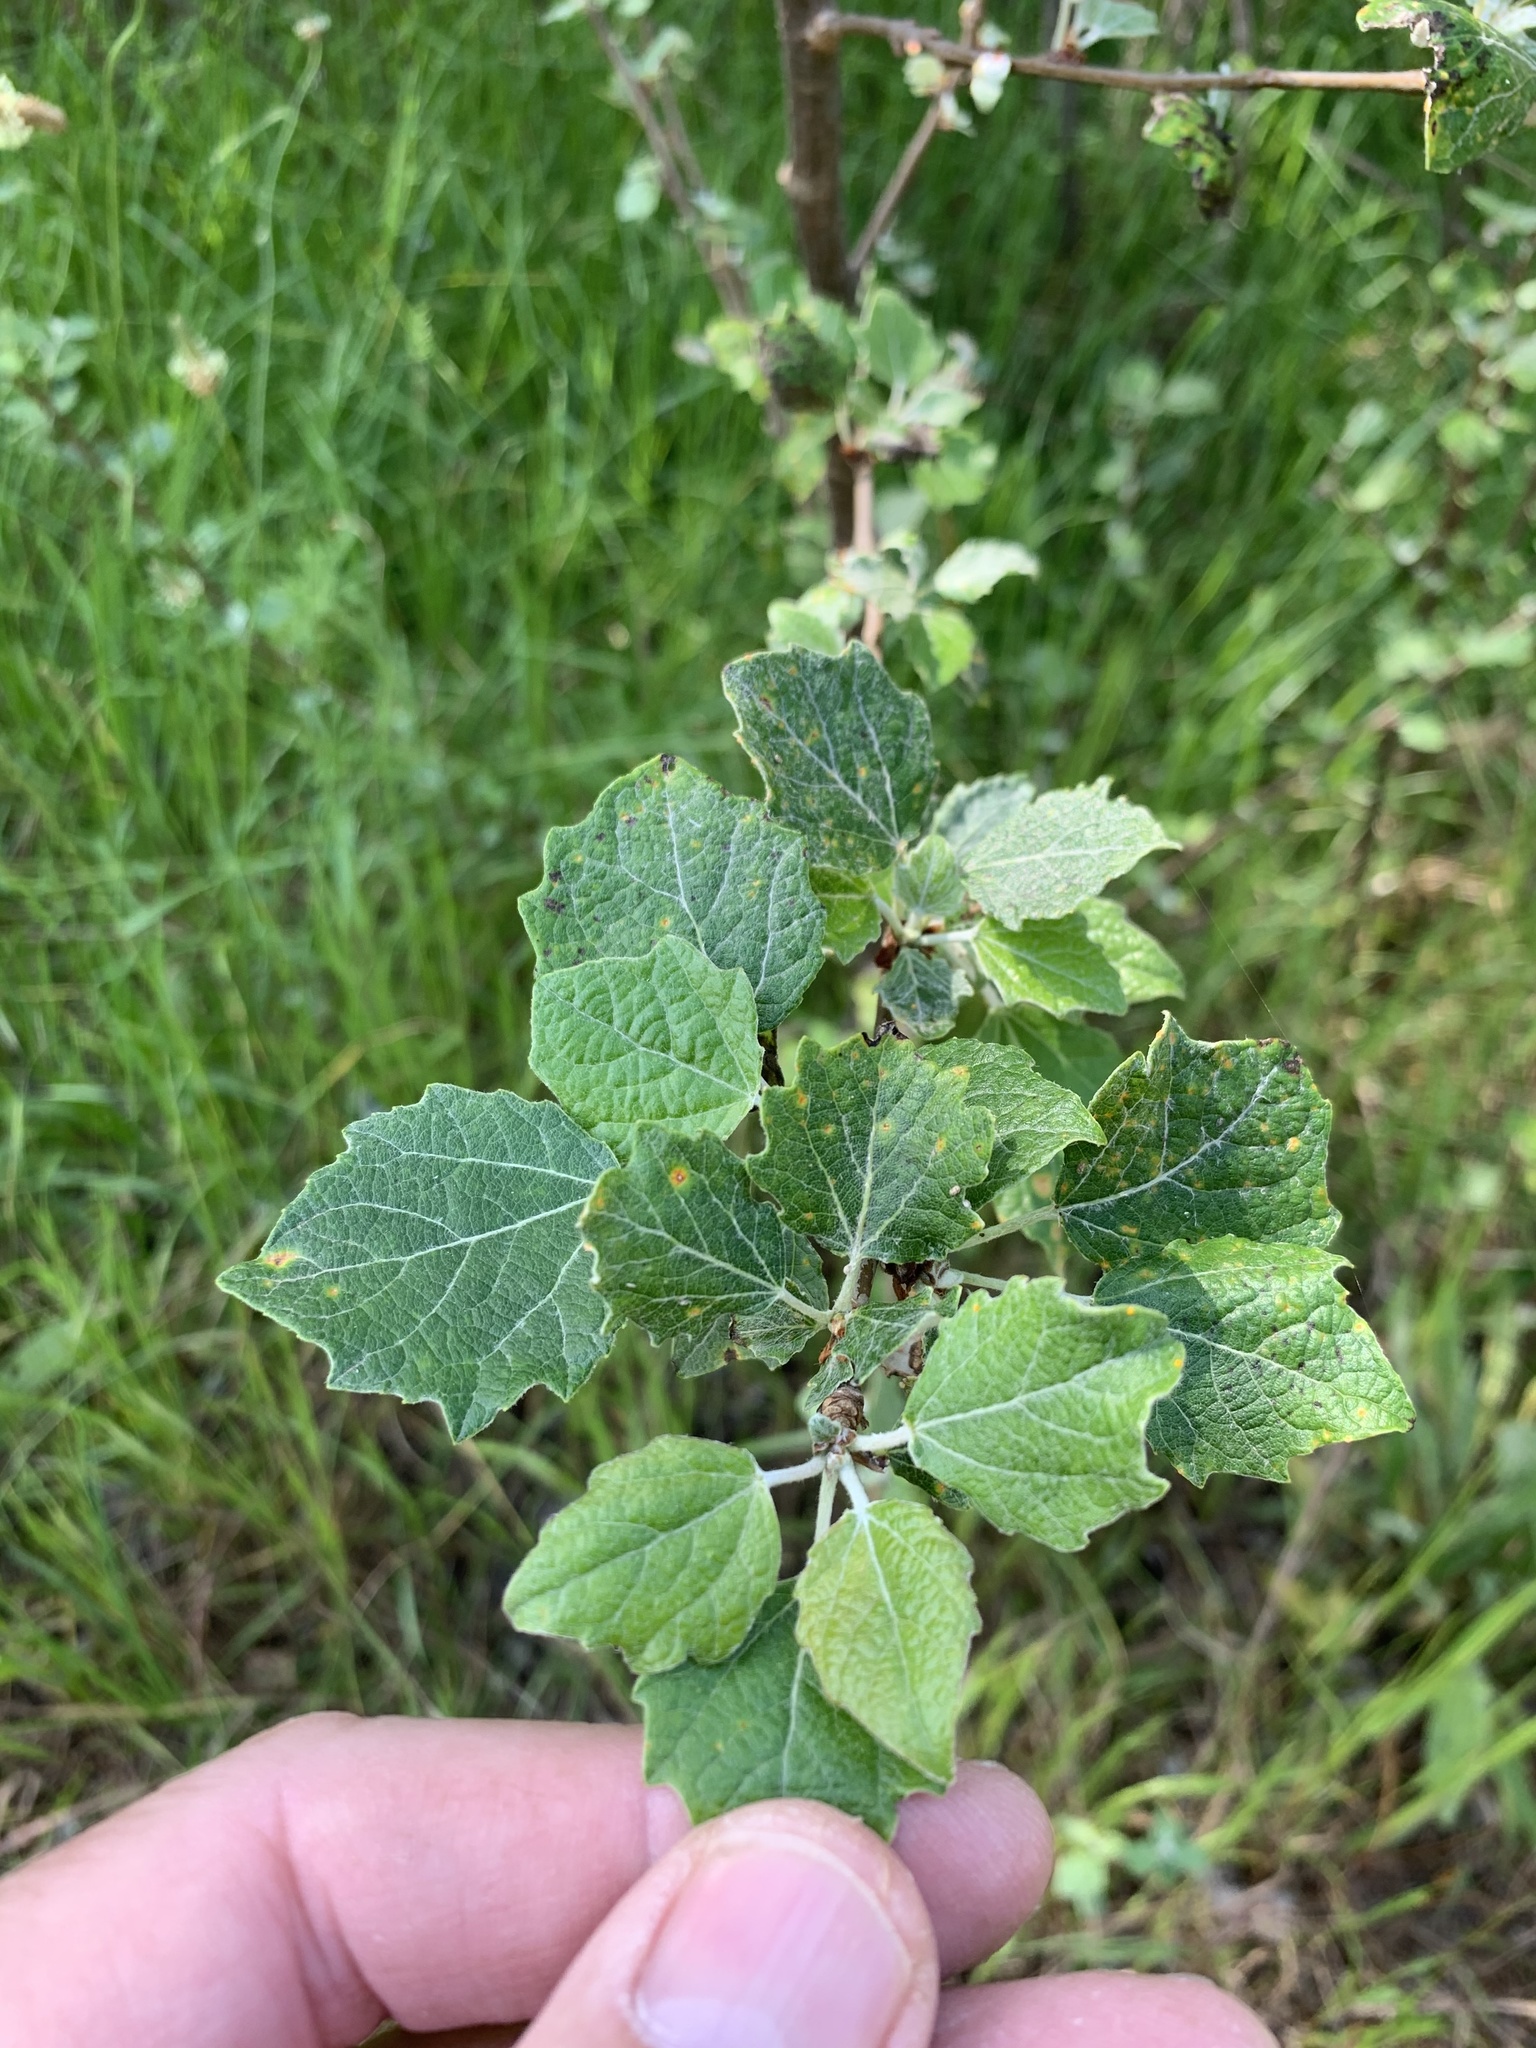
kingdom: Plantae
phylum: Tracheophyta
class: Magnoliopsida
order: Malpighiales
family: Salicaceae
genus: Populus
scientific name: Populus canescens
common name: Gray poplar
